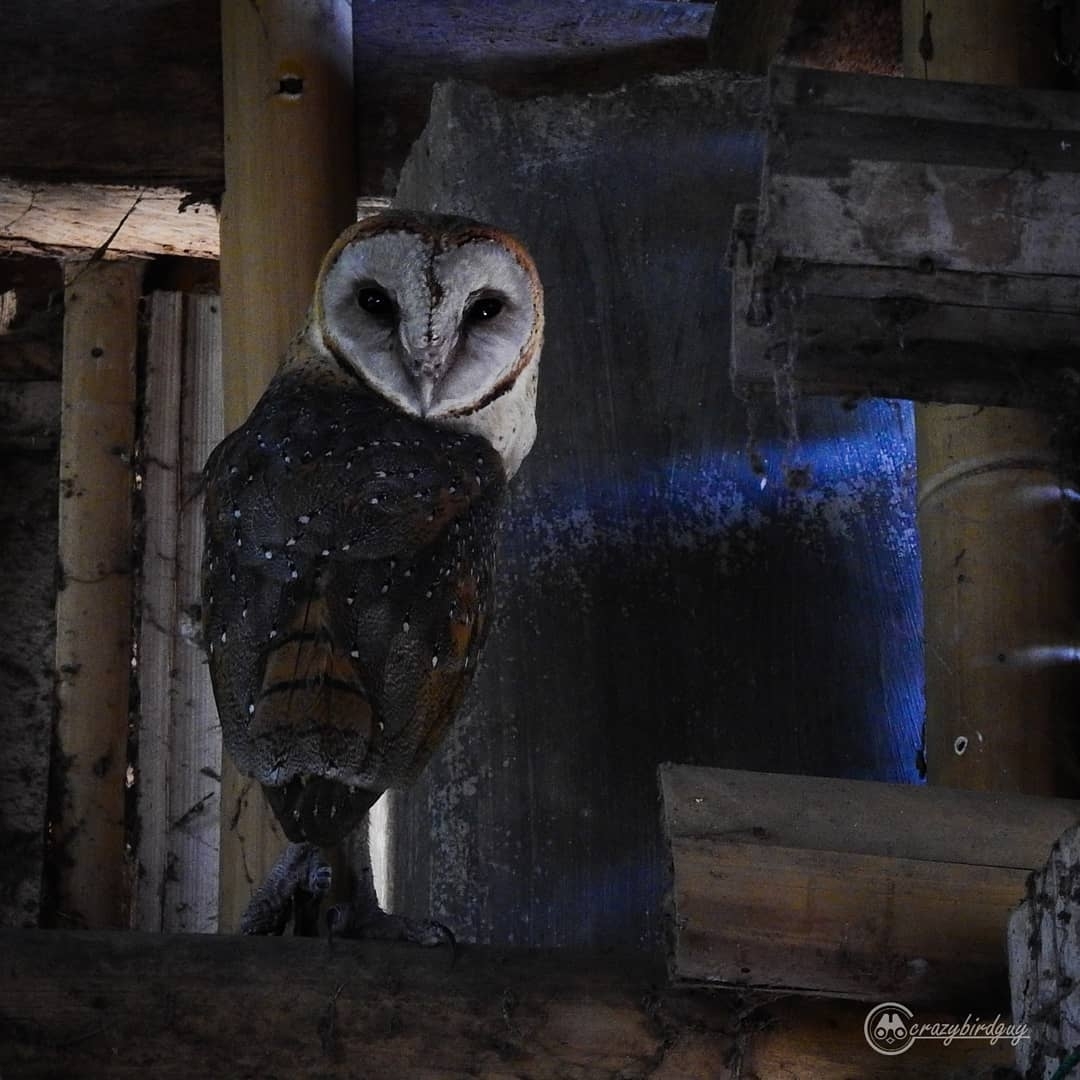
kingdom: Animalia
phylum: Chordata
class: Aves
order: Strigiformes
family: Tytonidae
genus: Tyto
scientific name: Tyto javanica
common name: Eastern barn owl
